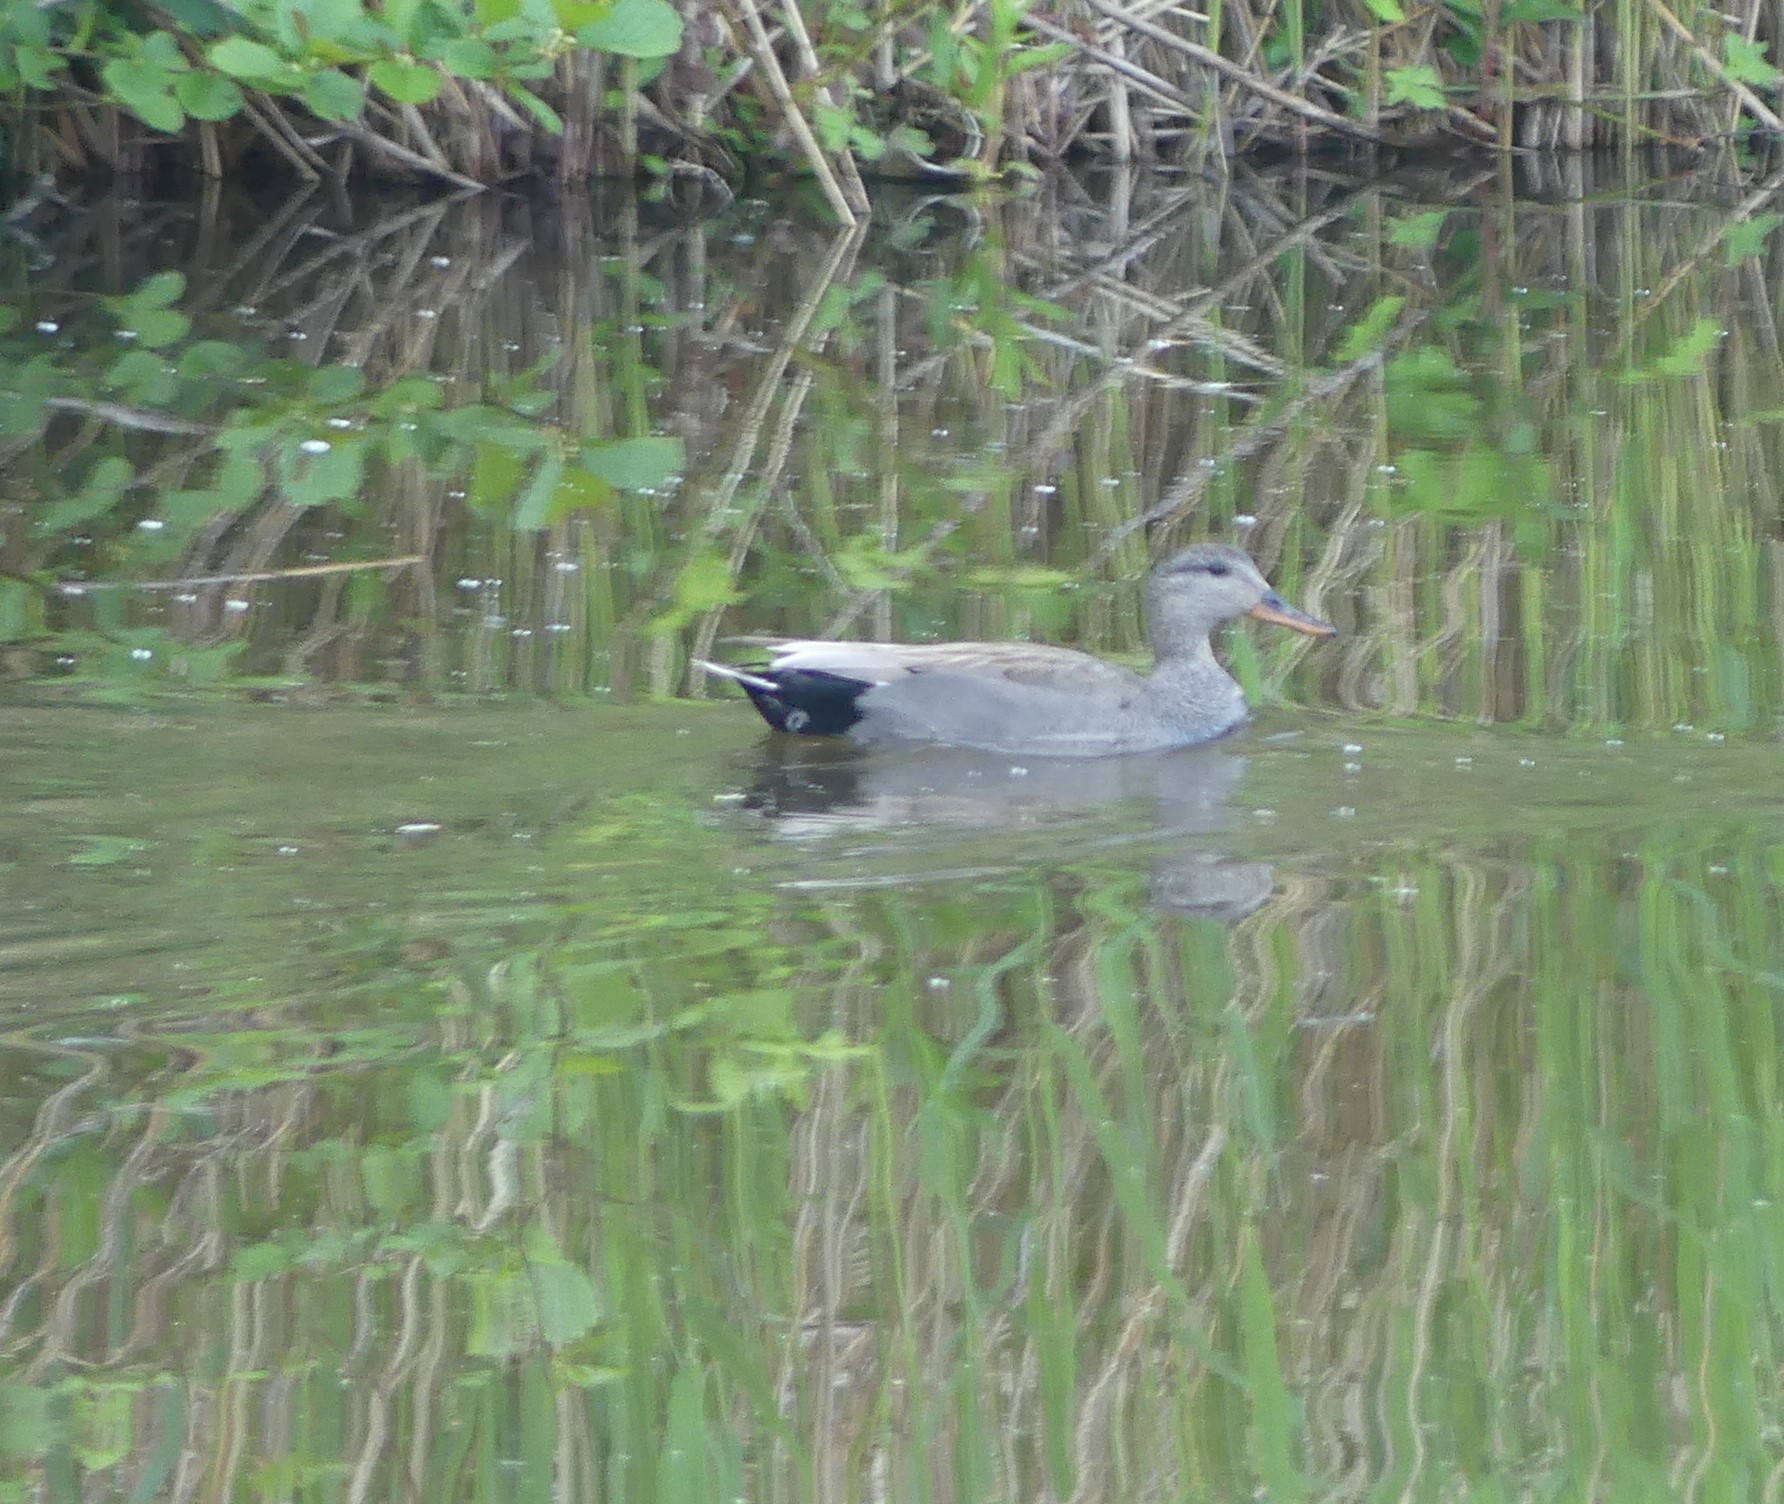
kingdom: Animalia
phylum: Chordata
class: Aves
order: Anseriformes
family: Anatidae
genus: Mareca
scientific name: Mareca strepera
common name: Gadwall
